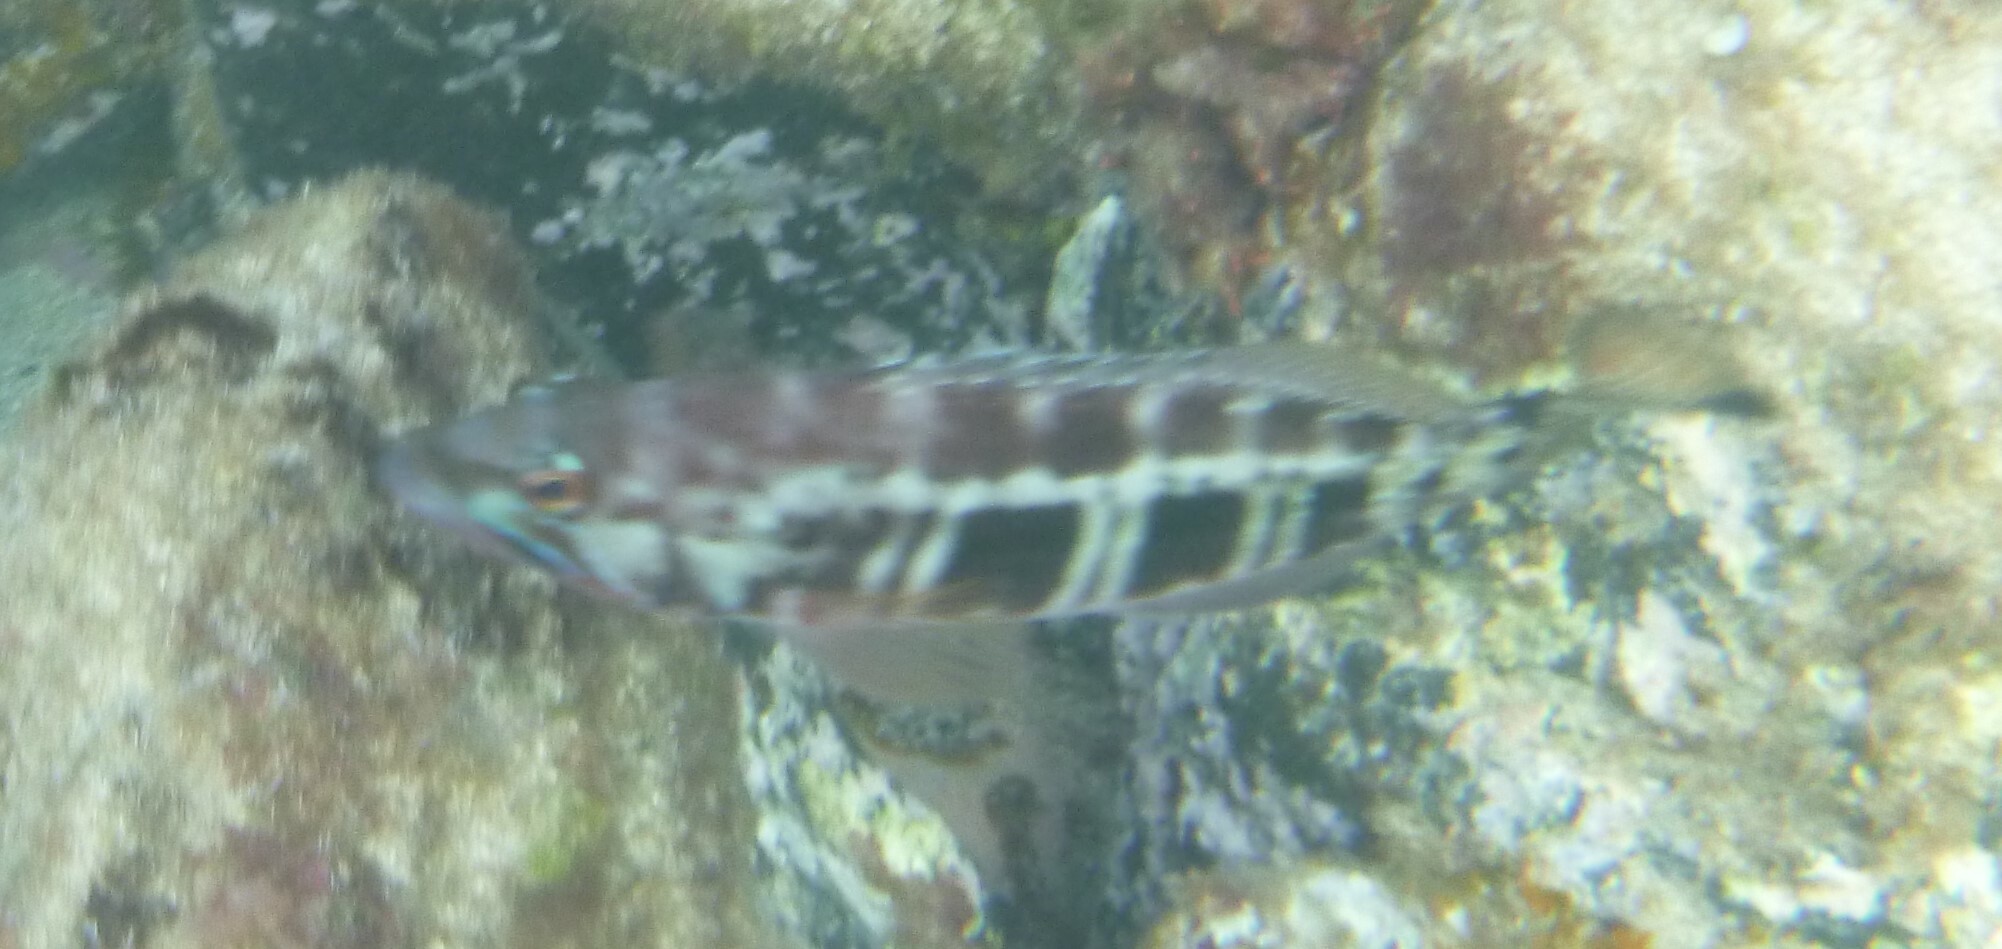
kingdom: Animalia
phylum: Chordata
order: Perciformes
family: Serranidae
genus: Serranus
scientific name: Serranus atricauda
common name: Blacktail comber
